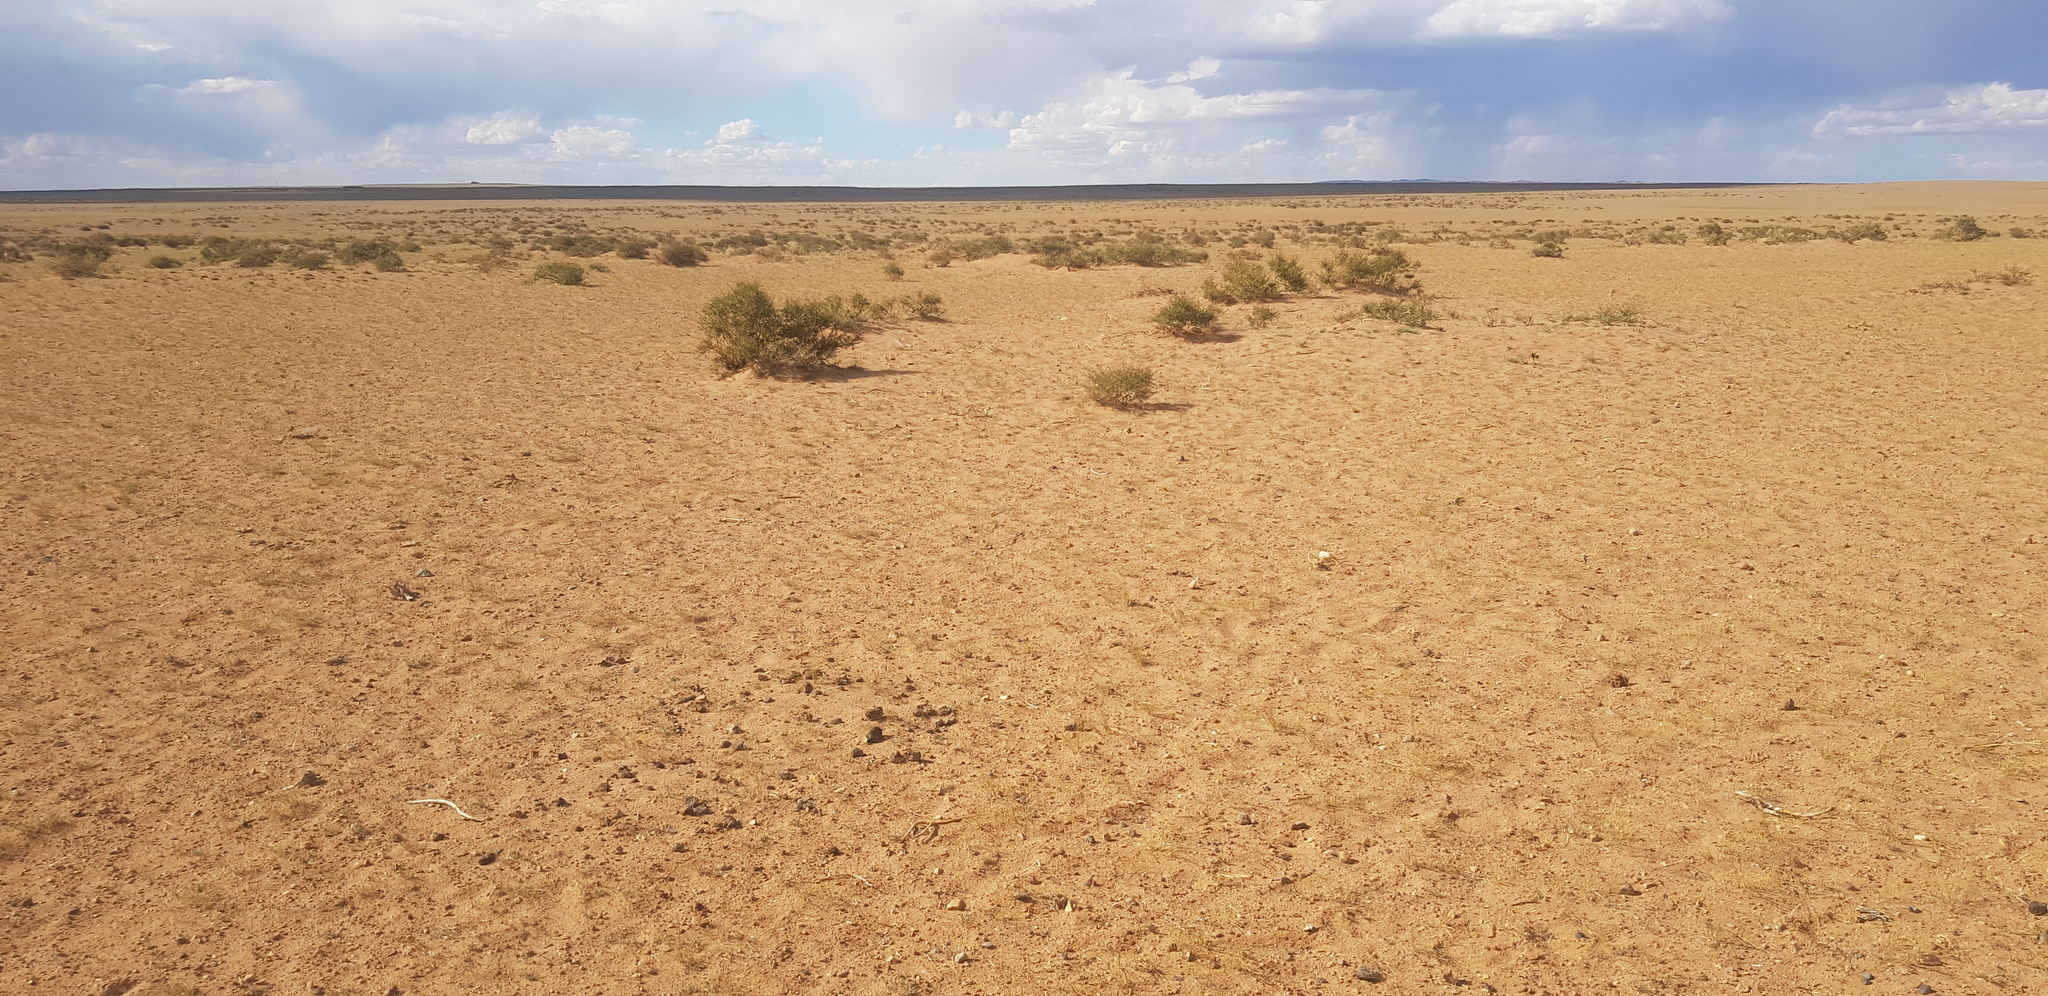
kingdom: Plantae
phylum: Tracheophyta
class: Magnoliopsida
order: Fabales
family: Fabaceae
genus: Caragana
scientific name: Caragana leucophloea
